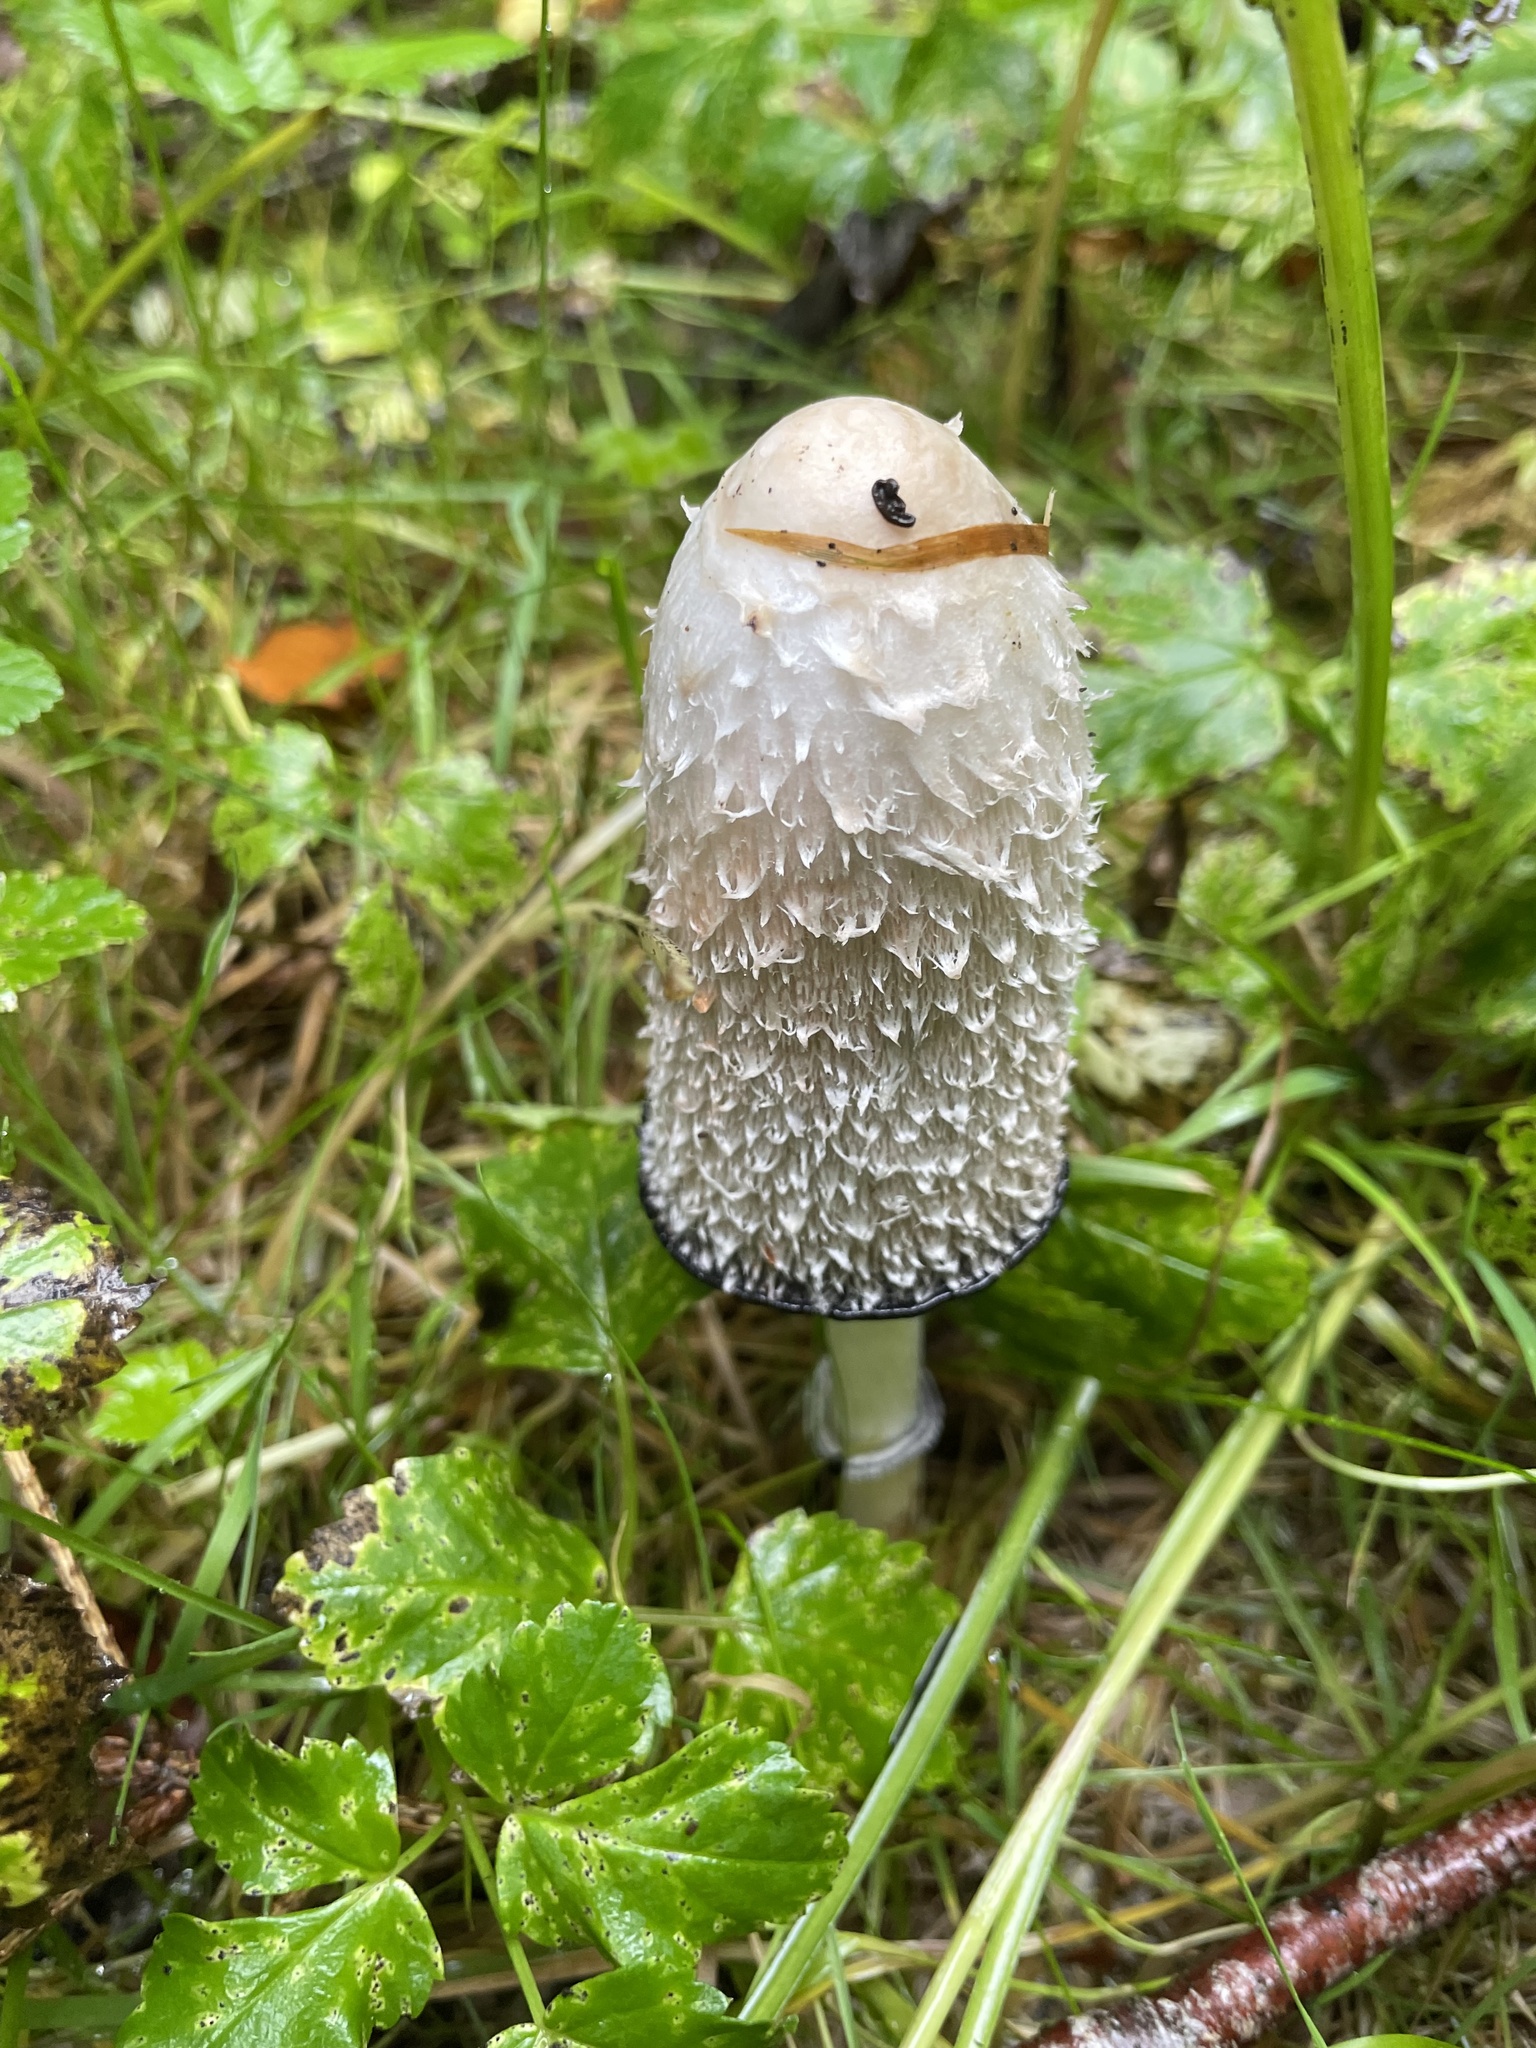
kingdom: Fungi
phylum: Basidiomycota
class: Agaricomycetes
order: Agaricales
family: Agaricaceae
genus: Coprinus
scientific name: Coprinus comatus
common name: Lawyer's wig
